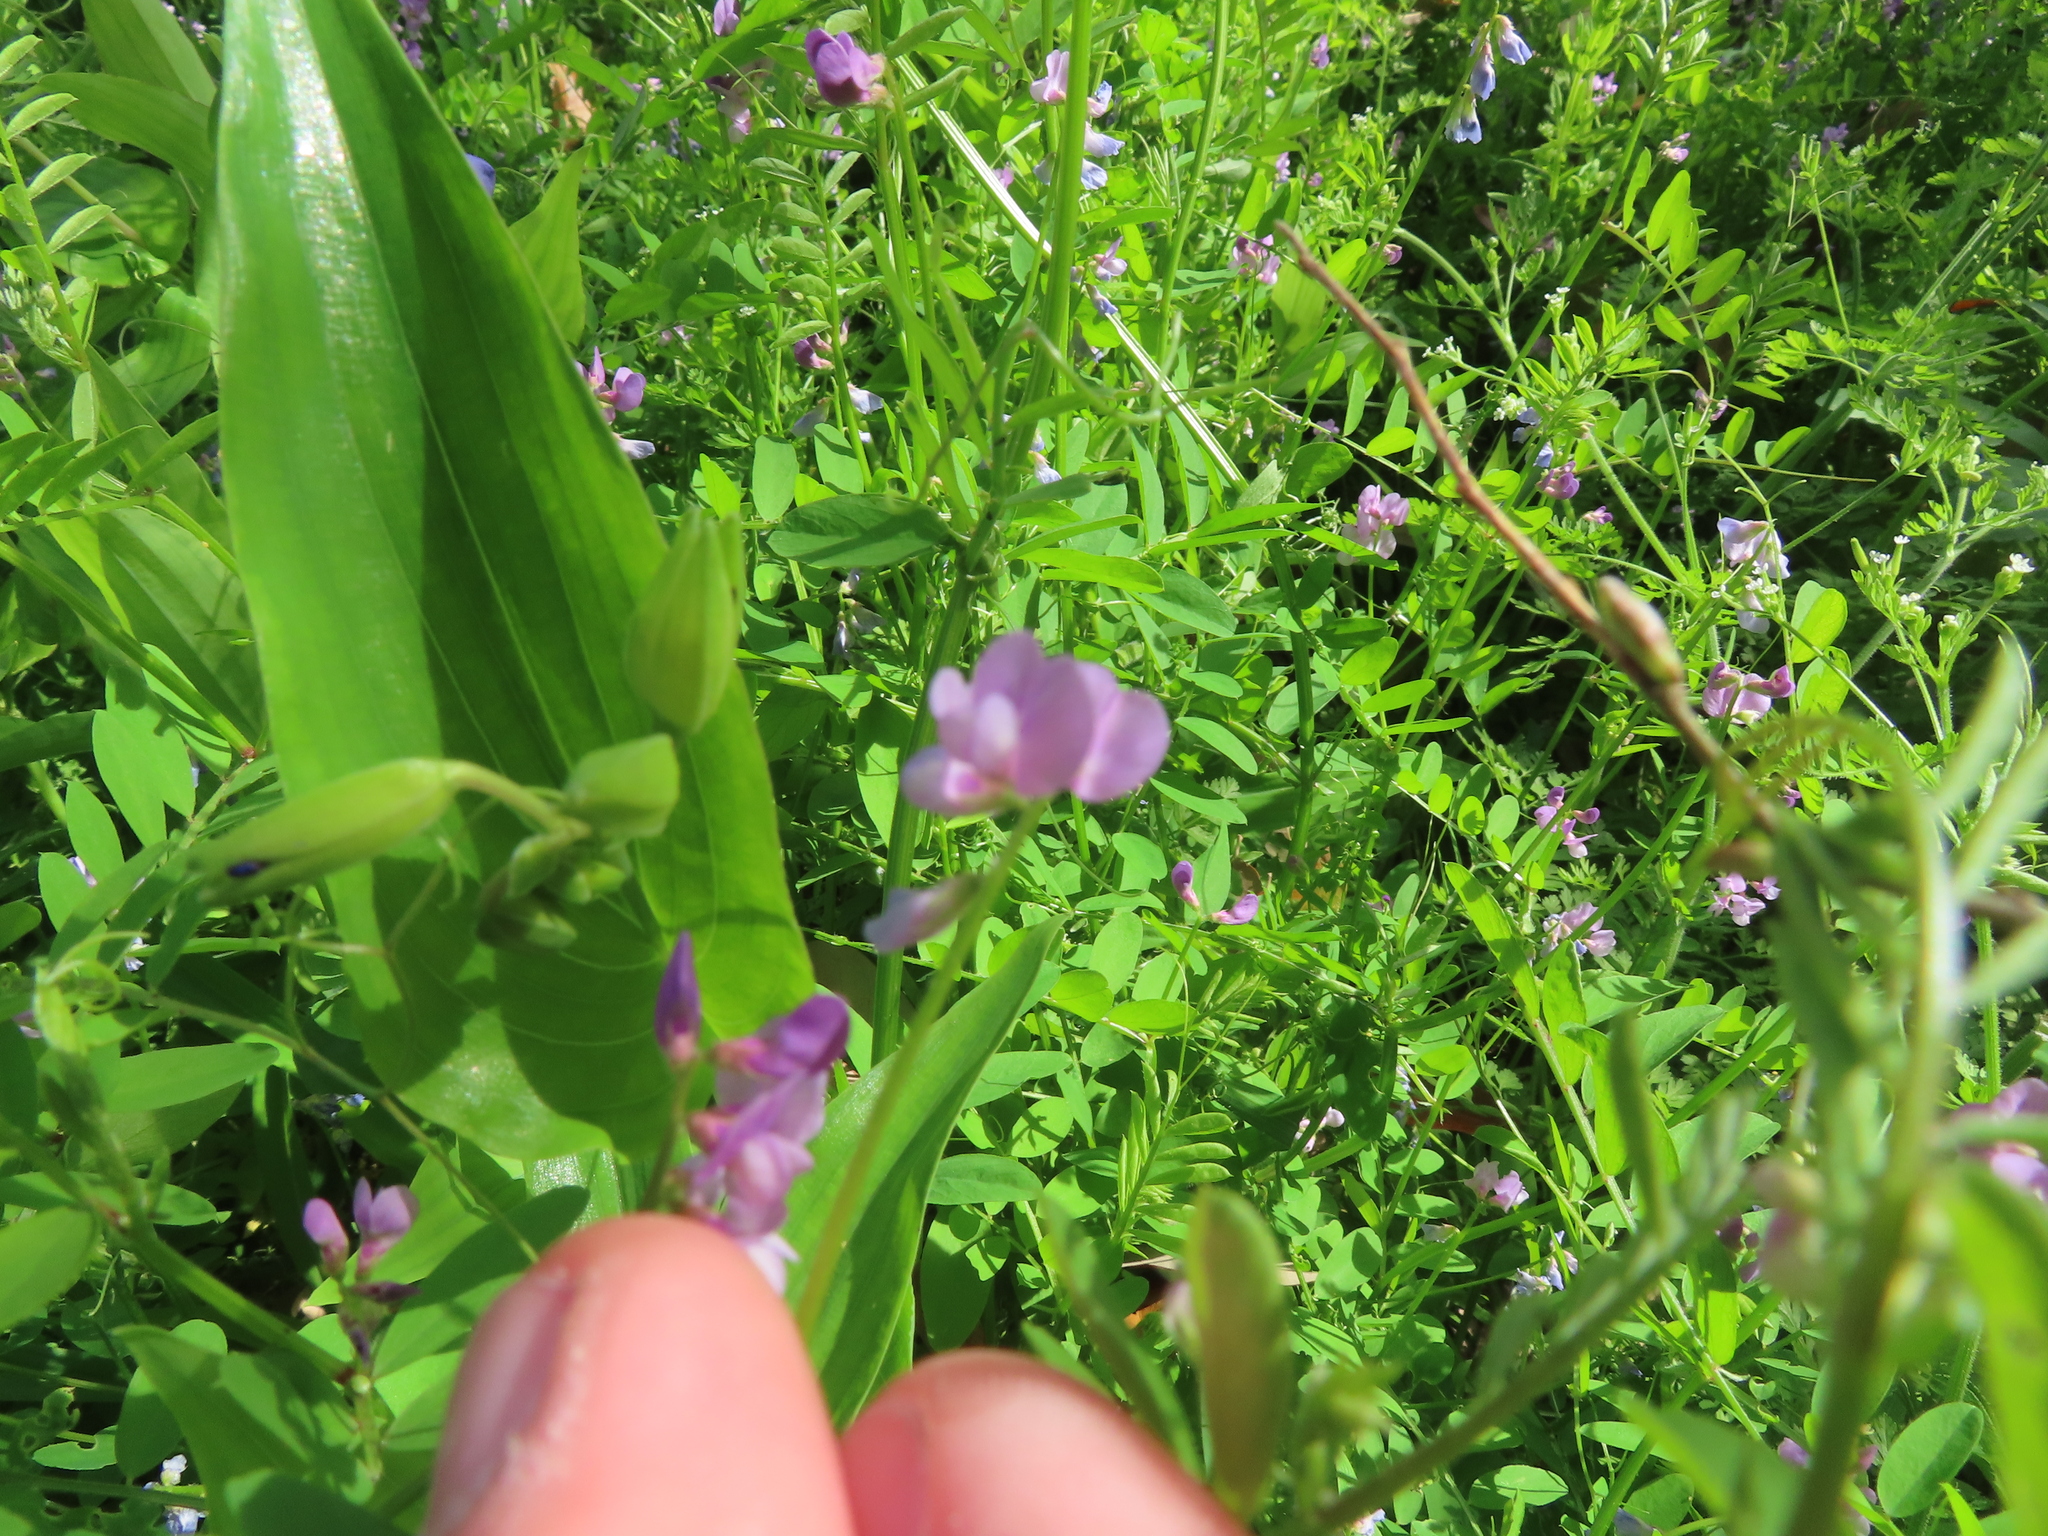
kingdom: Plantae
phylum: Tracheophyta
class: Magnoliopsida
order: Fabales
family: Fabaceae
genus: Vicia
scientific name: Vicia ludoviciana
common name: Louisiana vetch
